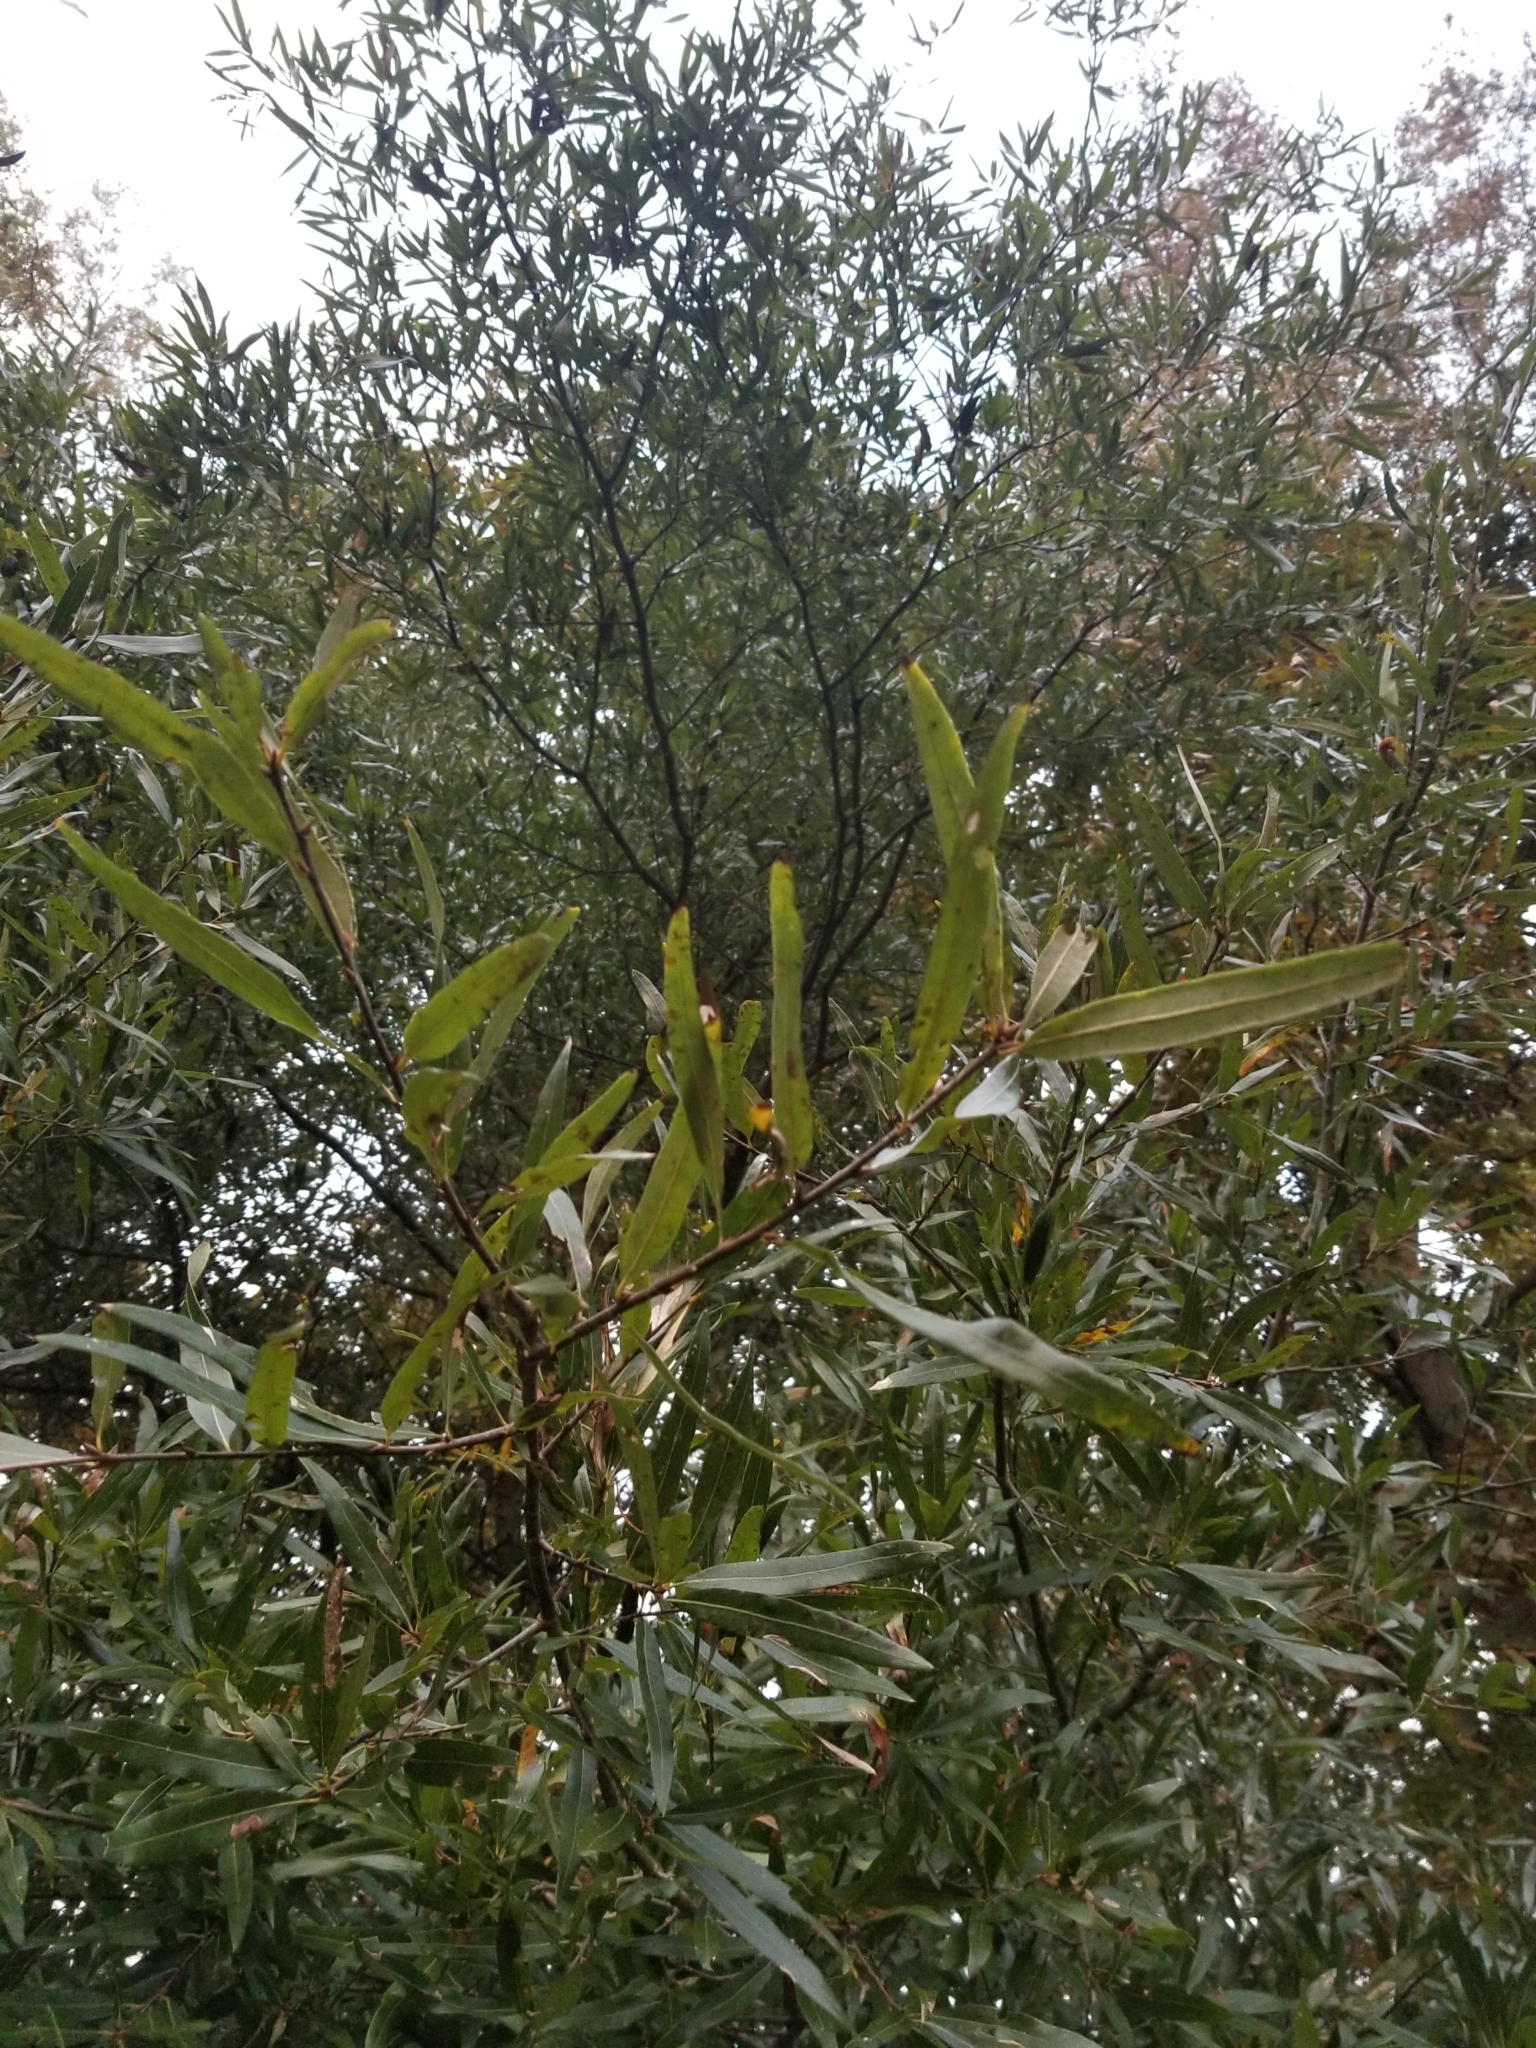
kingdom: Plantae
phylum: Tracheophyta
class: Magnoliopsida
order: Fagales
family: Fagaceae
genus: Quercus
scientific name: Quercus phellos
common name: Willow oak
